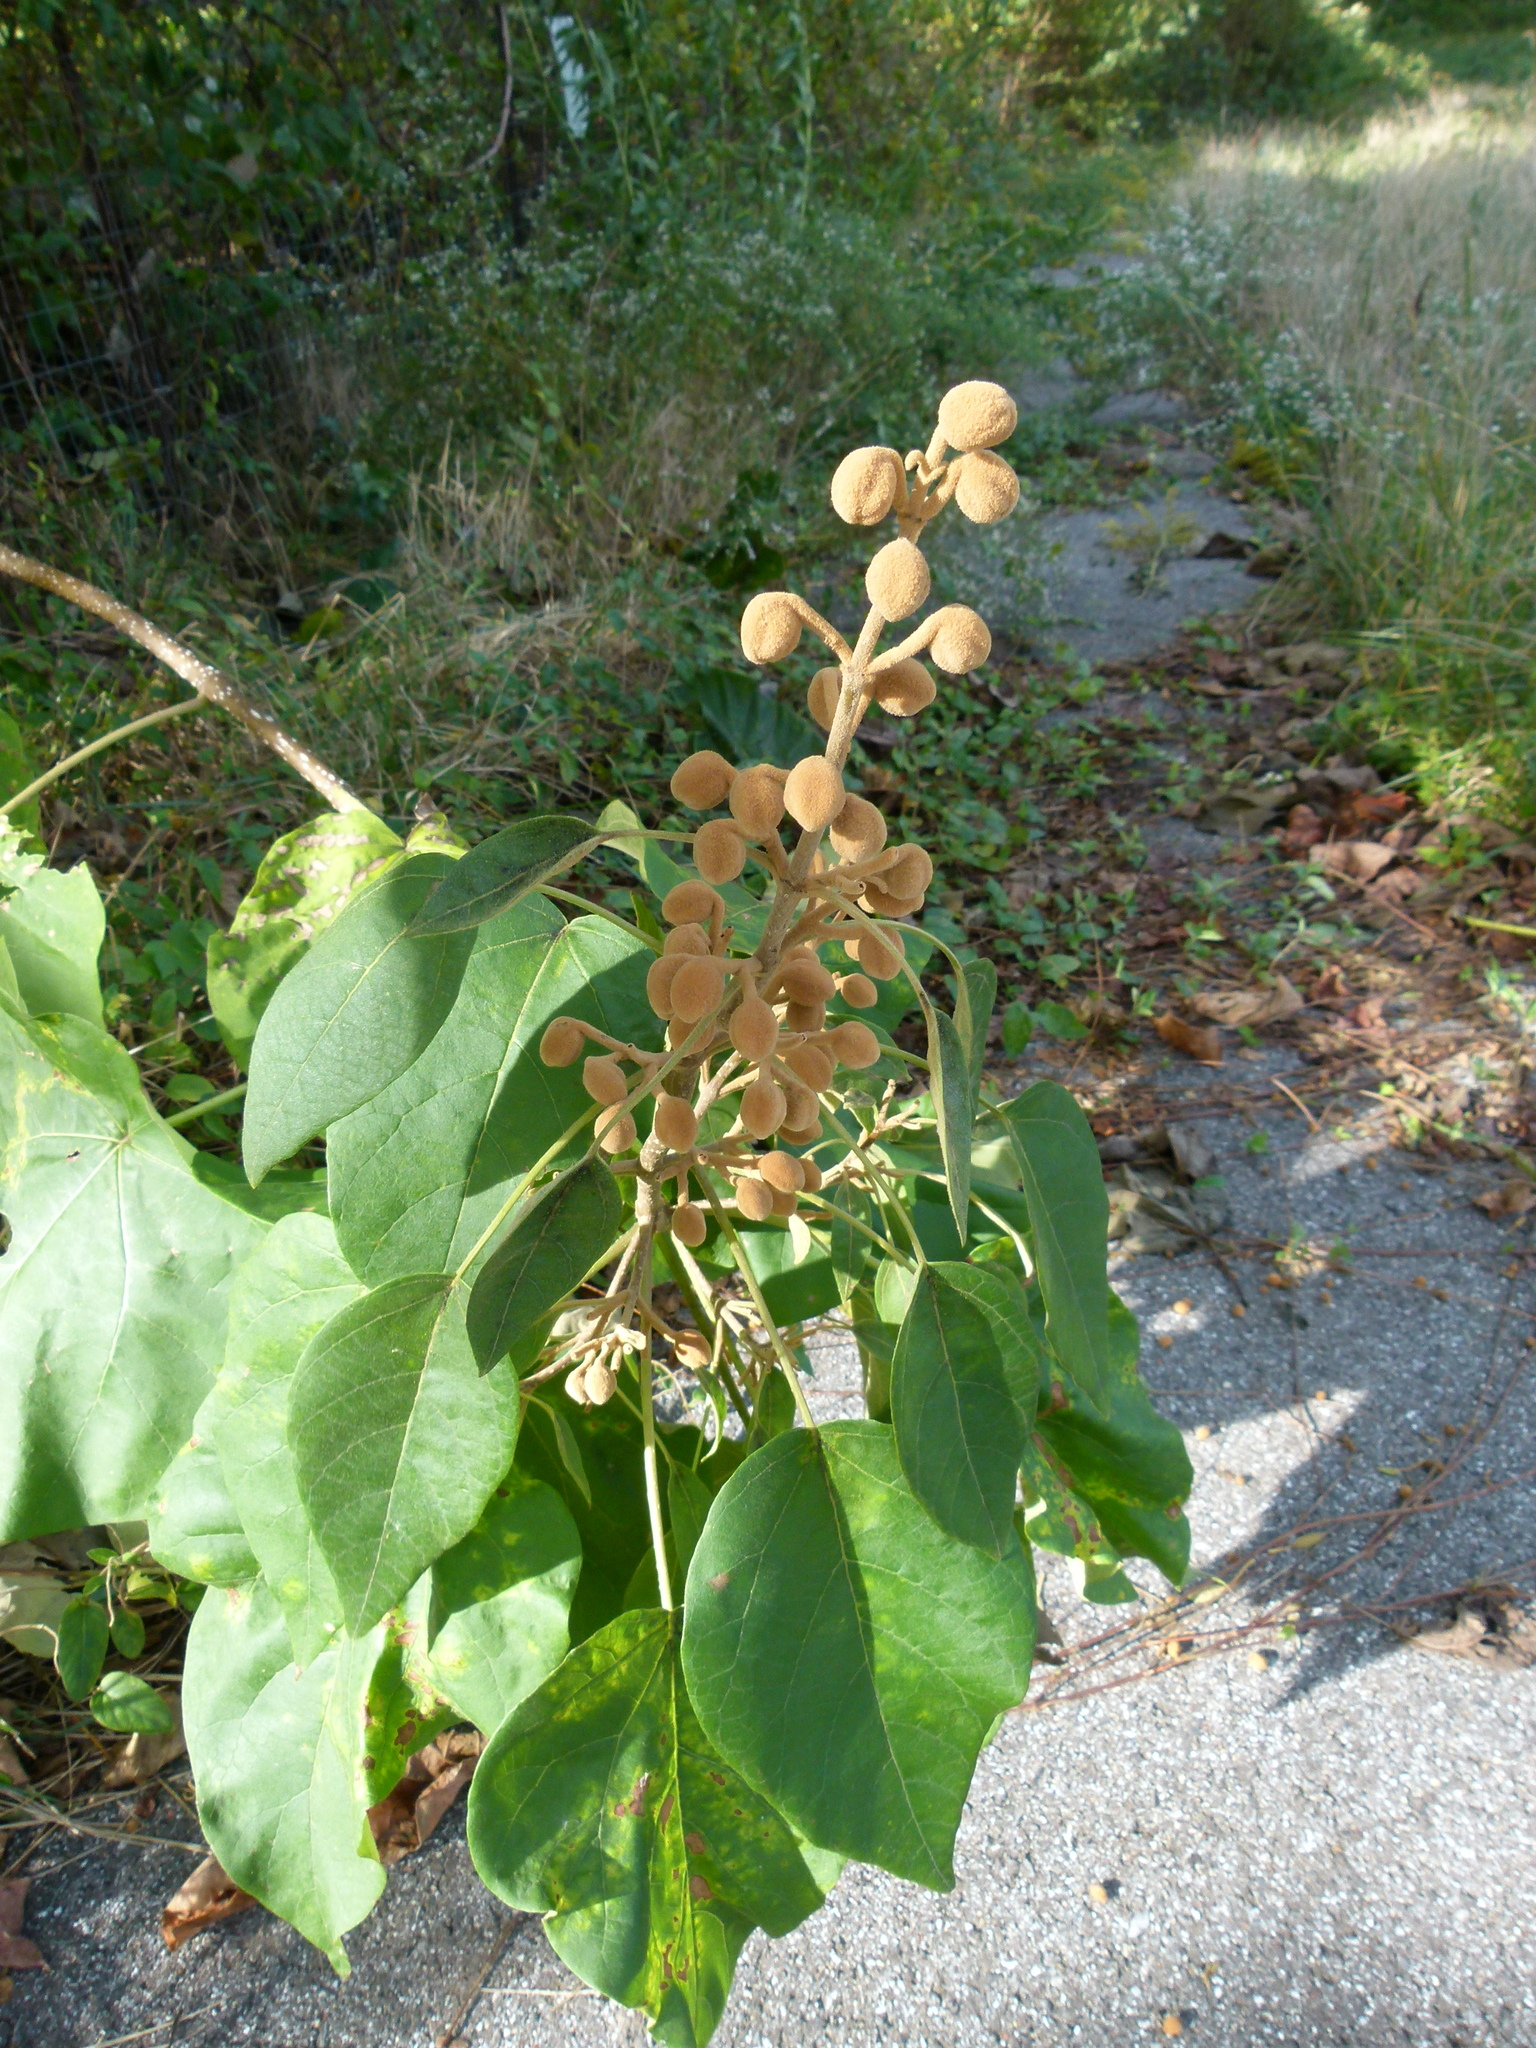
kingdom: Plantae
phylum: Tracheophyta
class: Magnoliopsida
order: Lamiales
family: Paulowniaceae
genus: Paulownia
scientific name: Paulownia tomentosa
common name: Foxglove-tree
